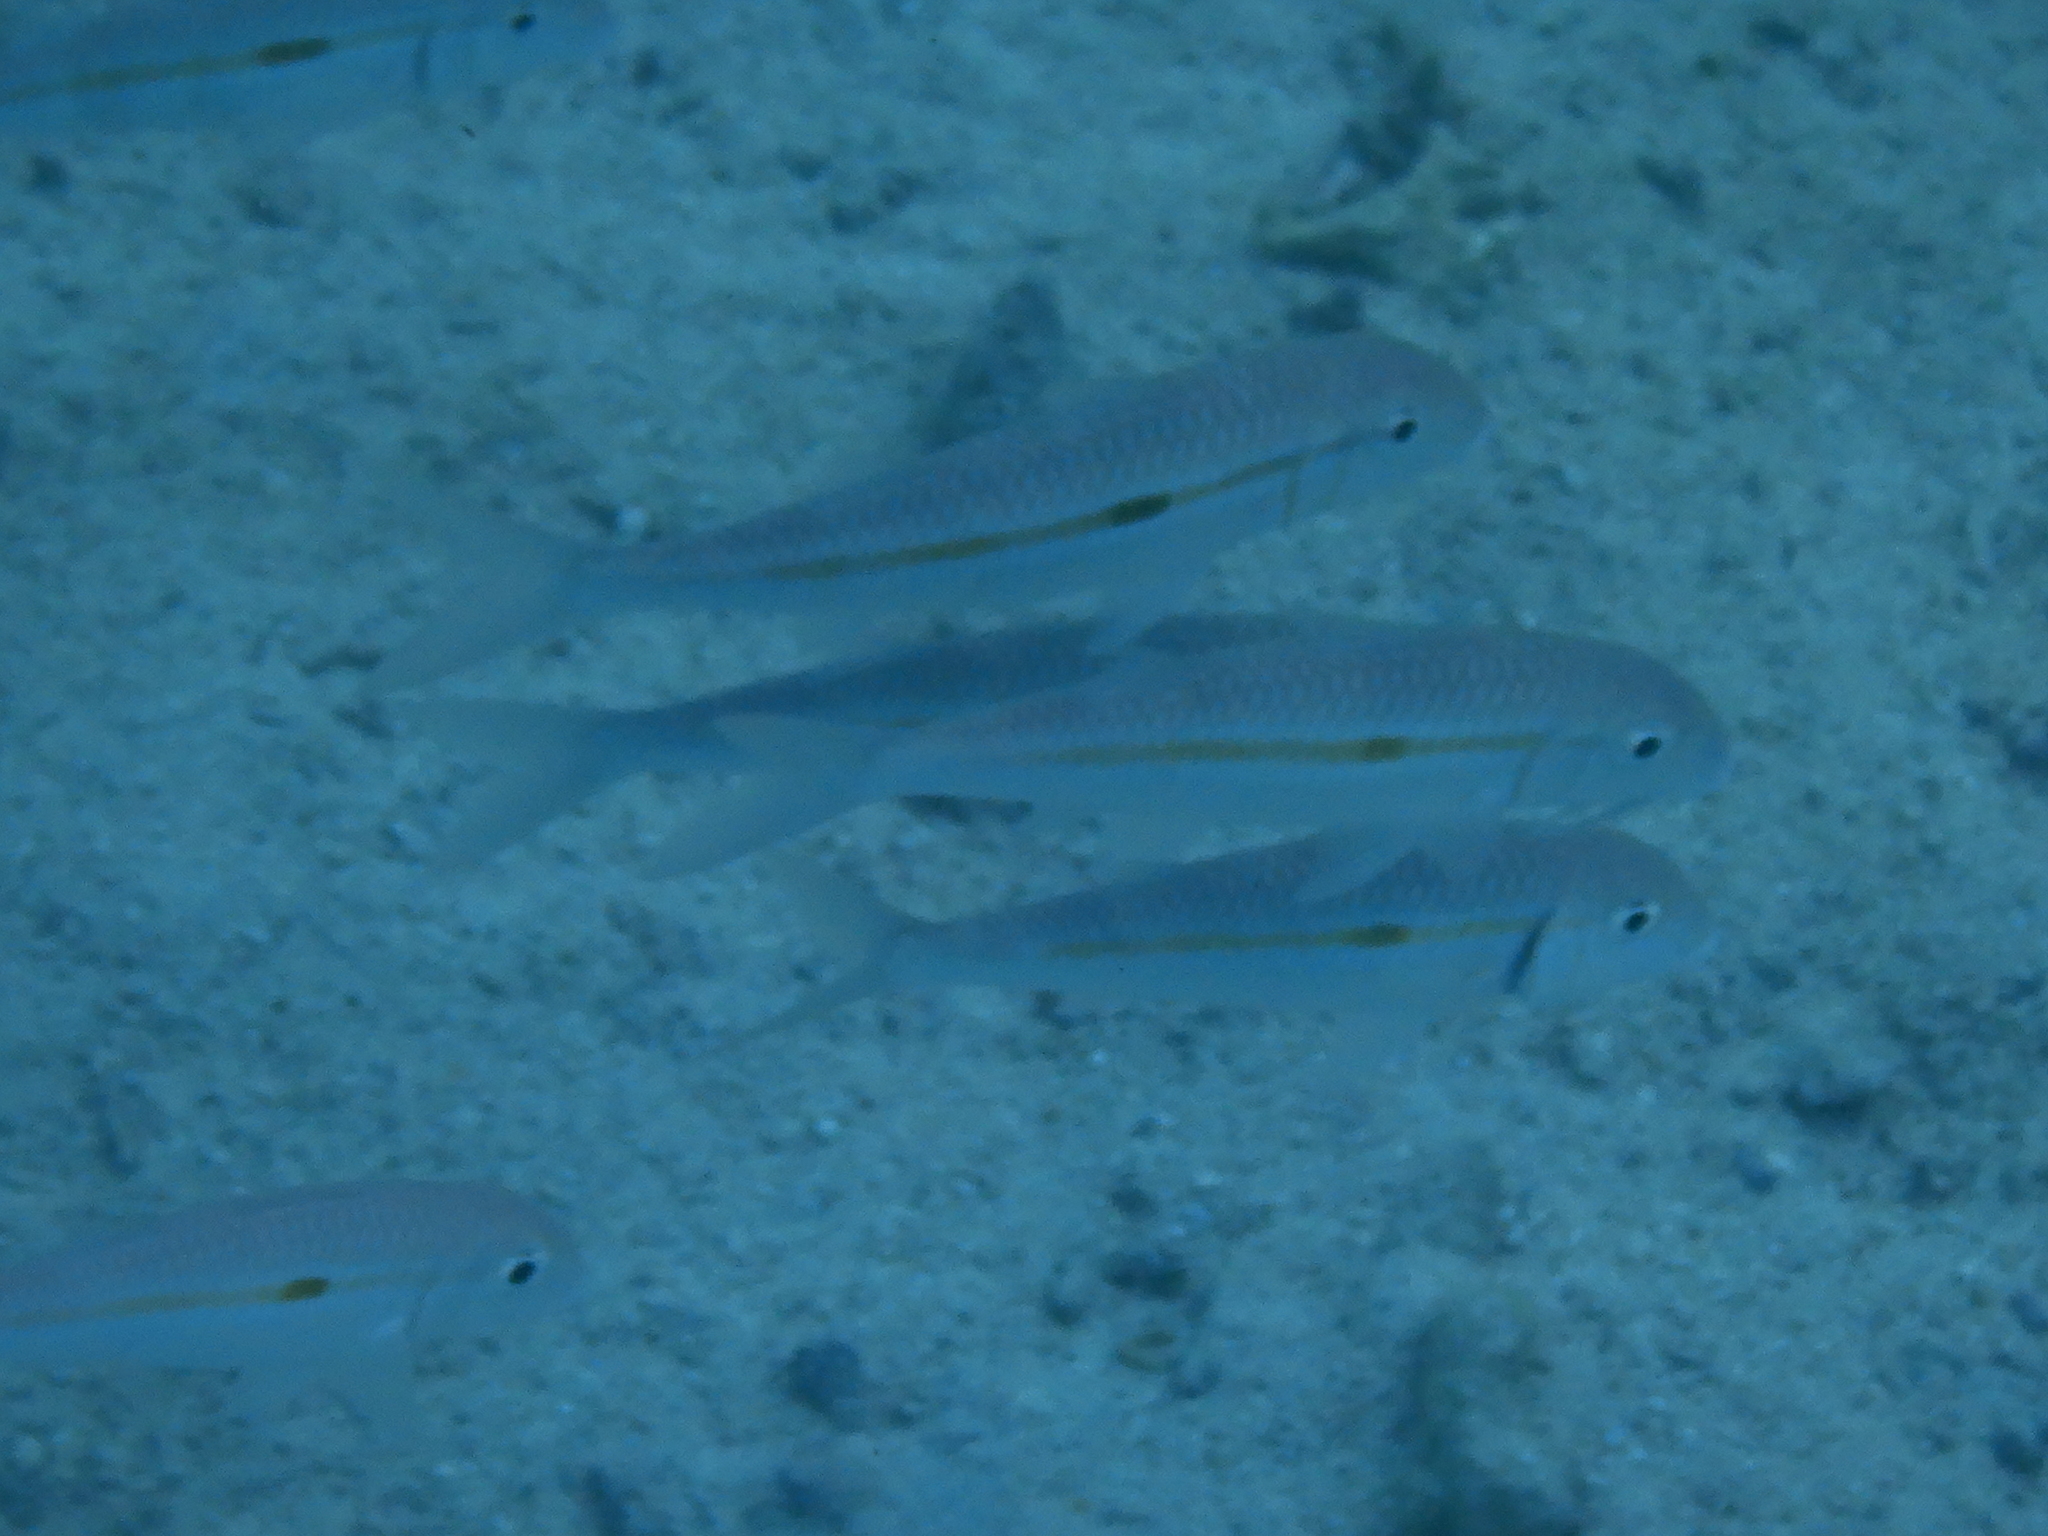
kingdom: Animalia
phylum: Chordata
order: Perciformes
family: Mullidae
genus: Mulloidichthys
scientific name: Mulloidichthys flavolineatus
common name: Yellowstripe goatfish
